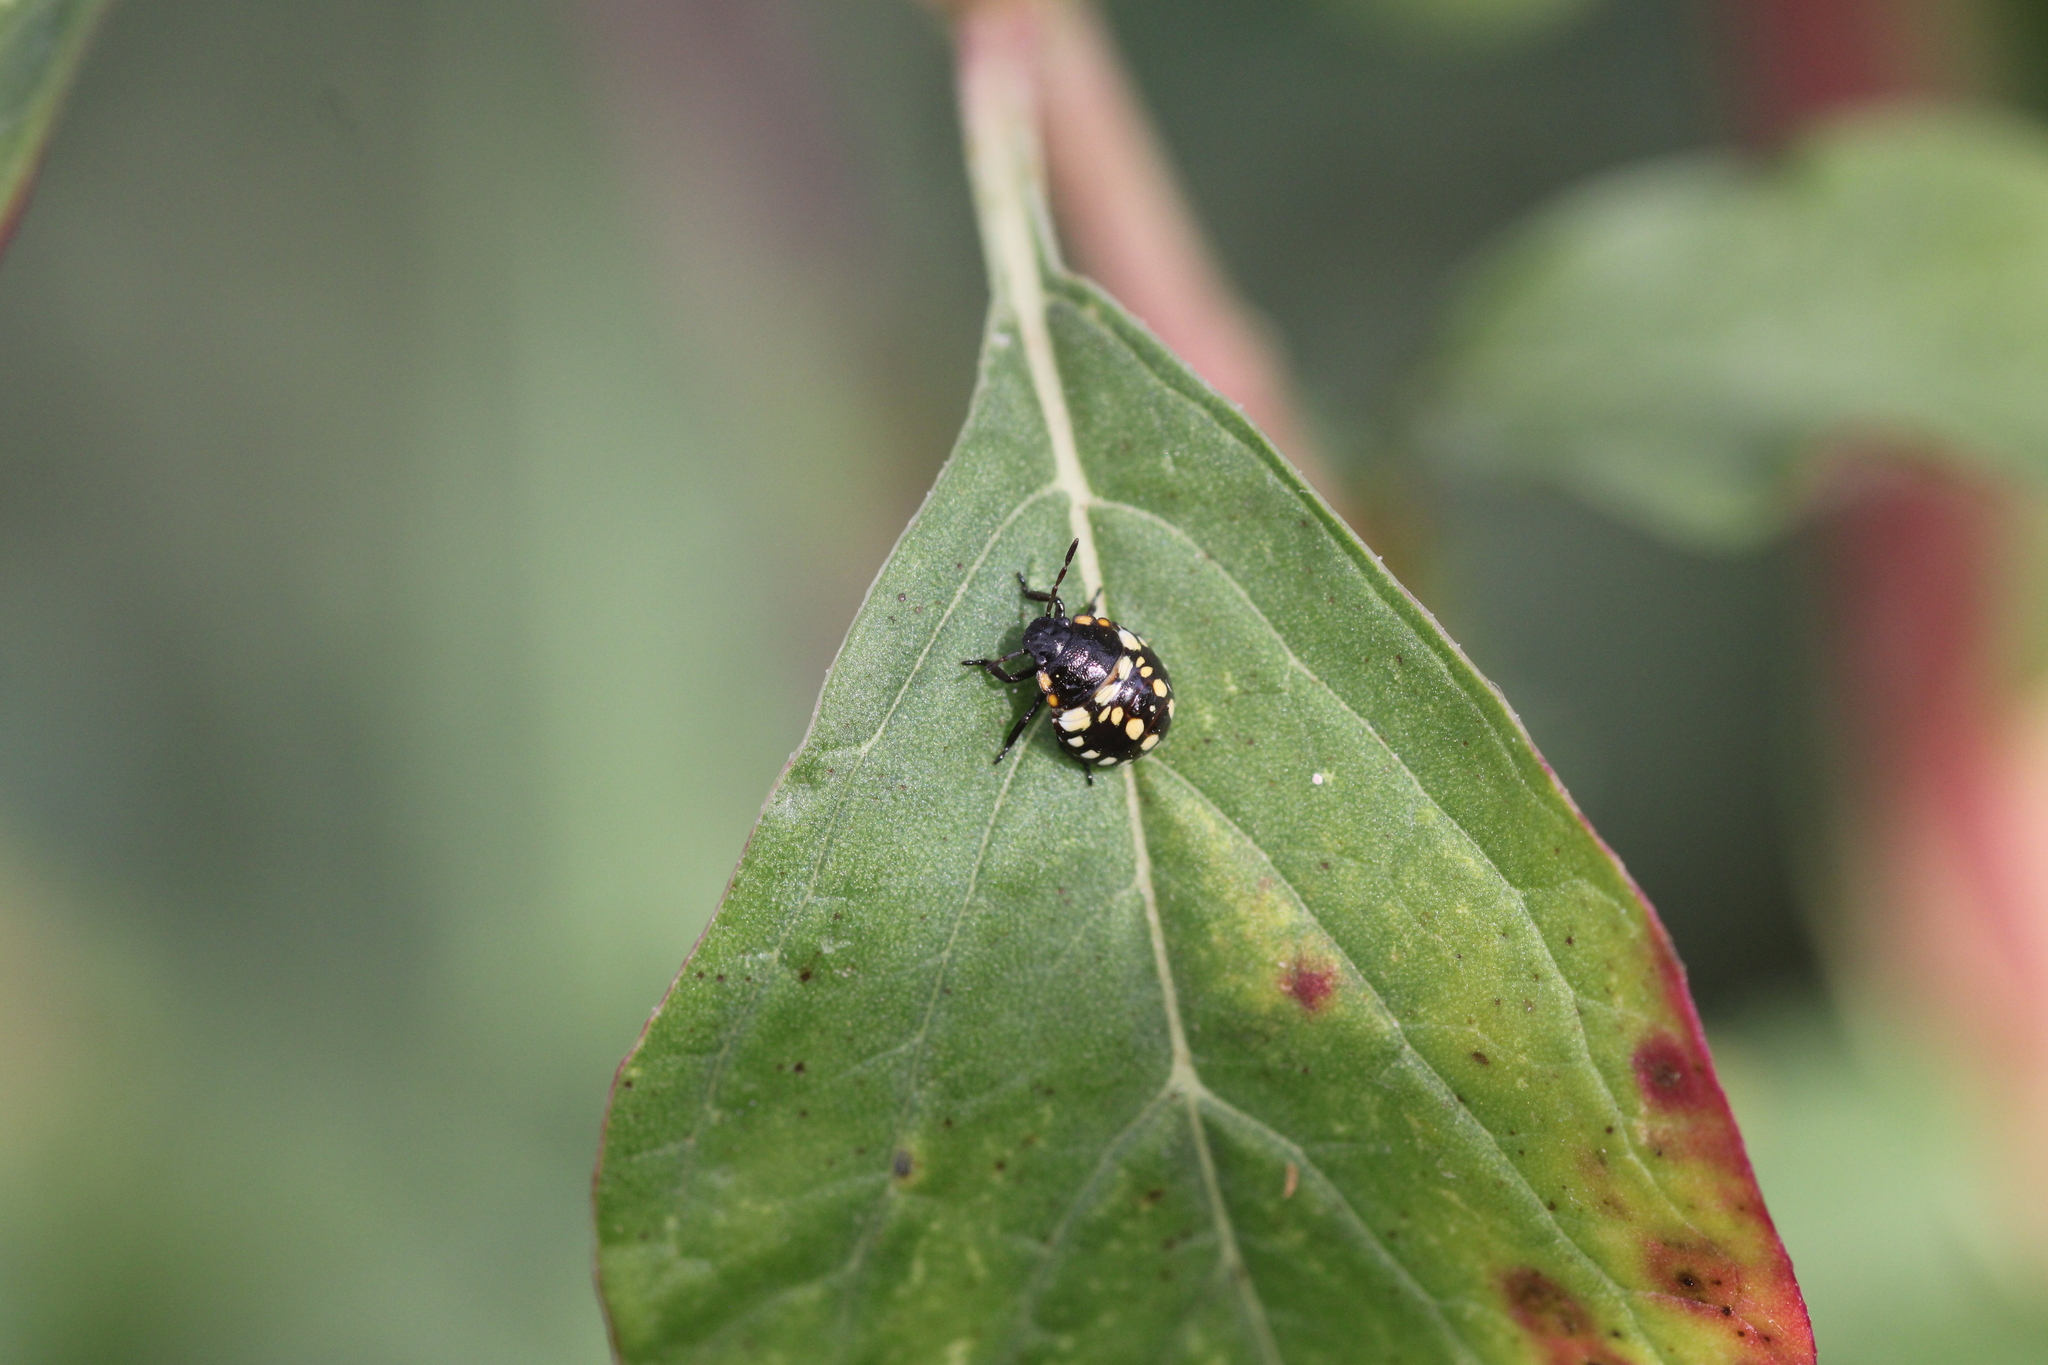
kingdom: Animalia
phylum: Arthropoda
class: Insecta
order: Hemiptera
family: Pentatomidae
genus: Nezara
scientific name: Nezara viridula
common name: Southern green stink bug
